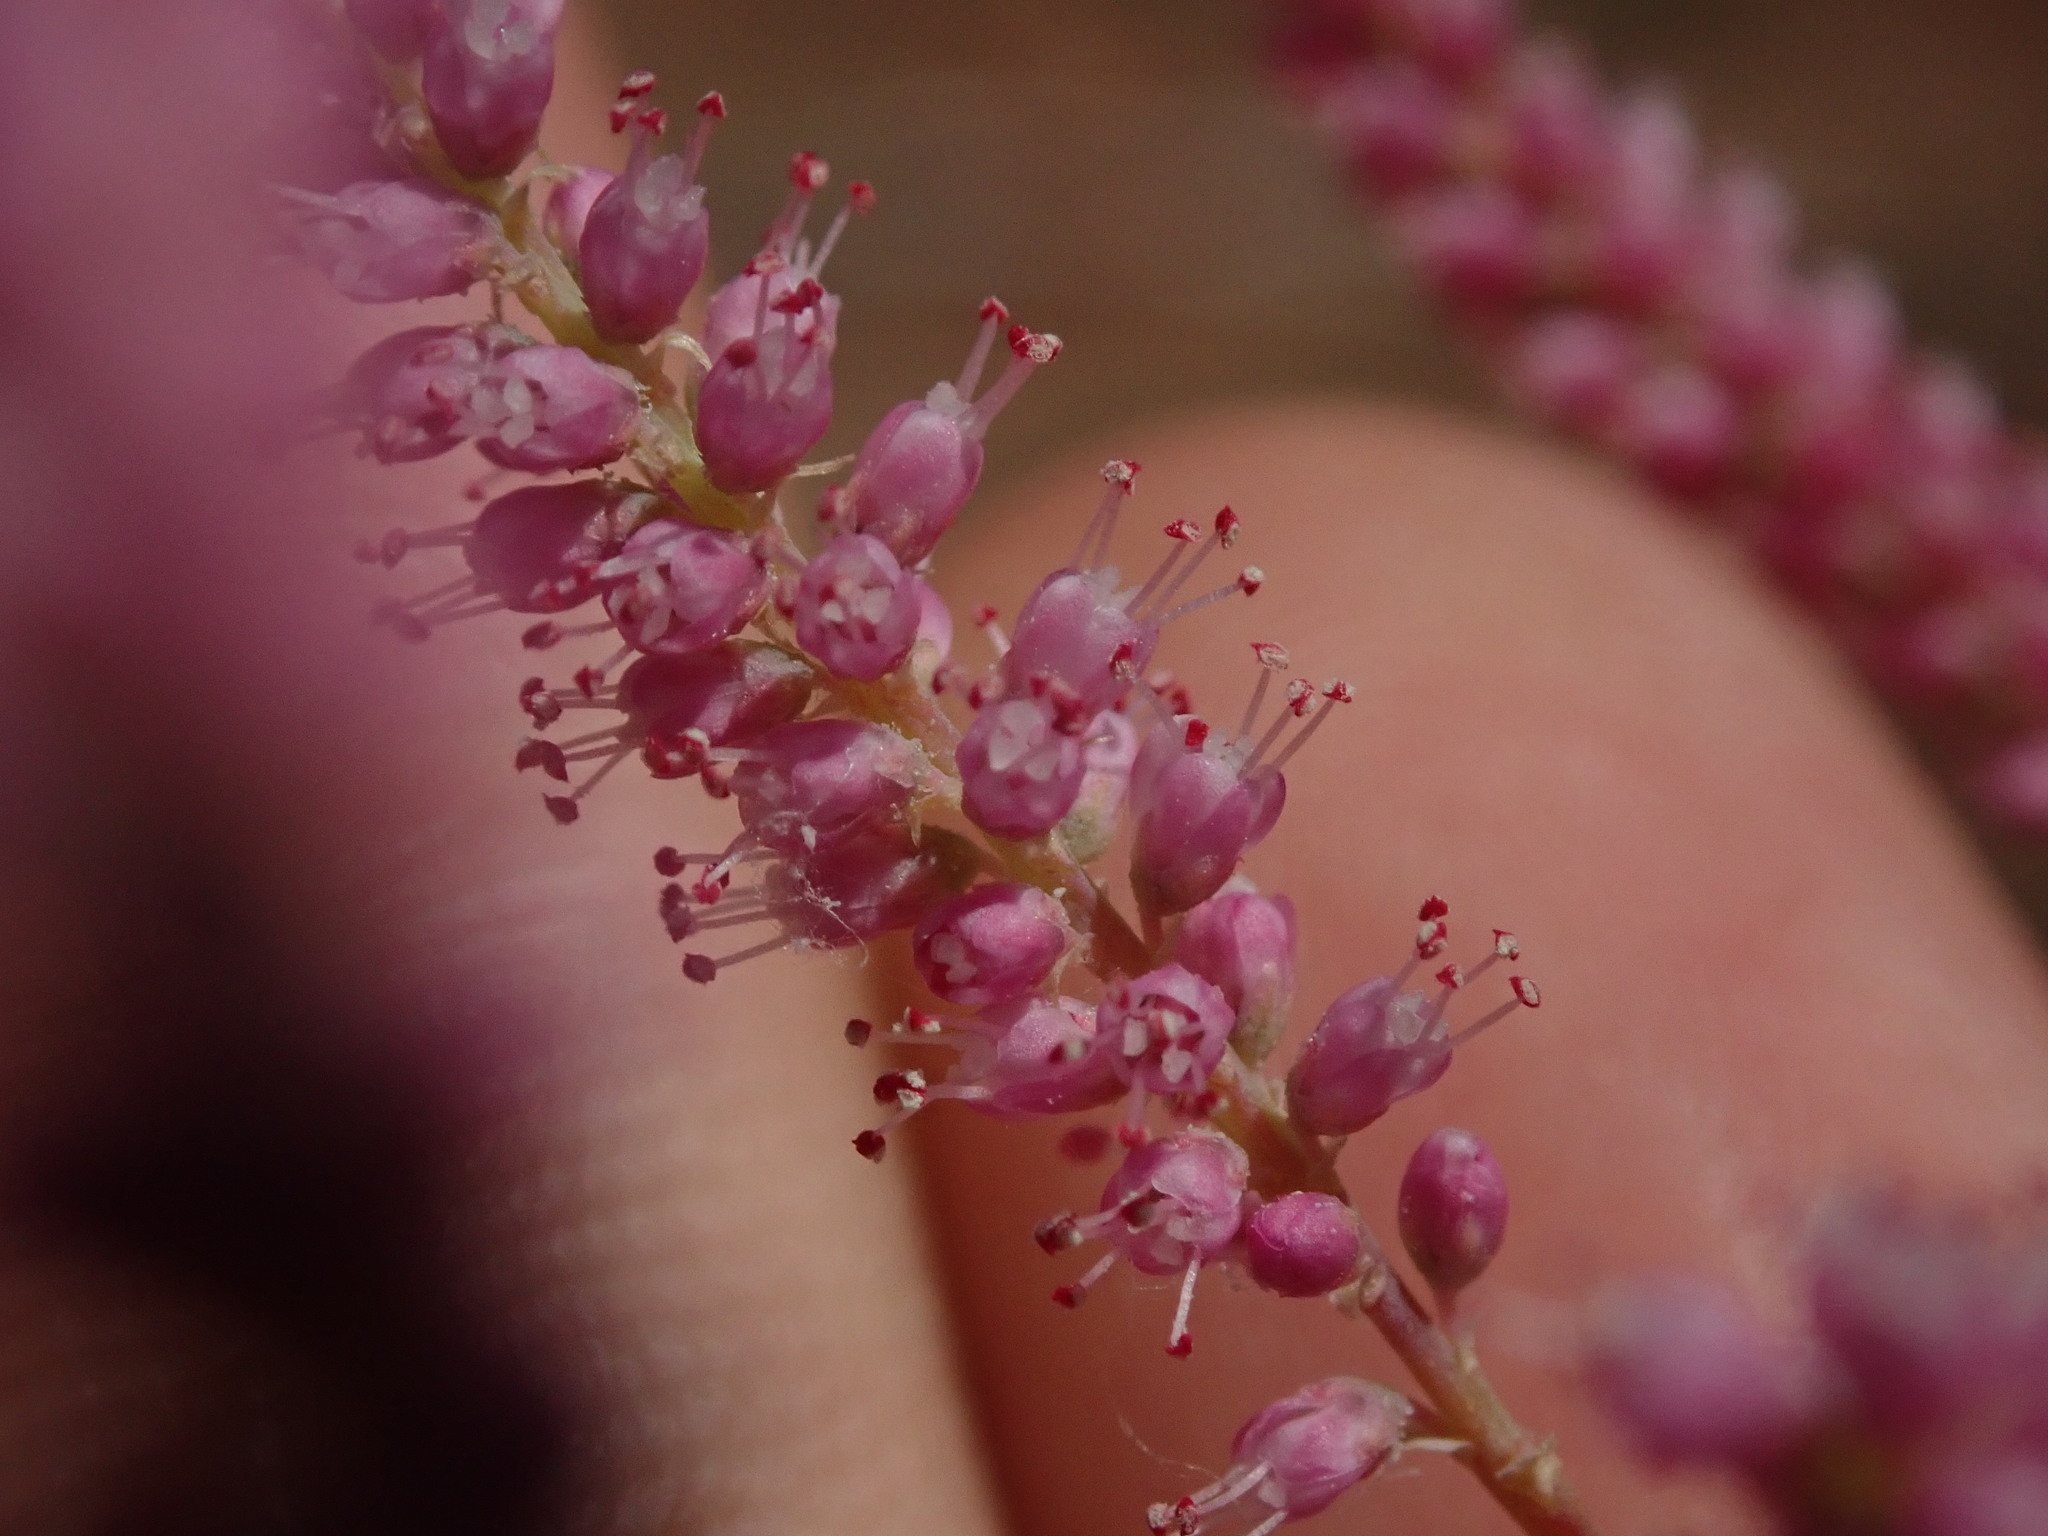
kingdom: Plantae
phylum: Tracheophyta
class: Magnoliopsida
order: Caryophyllales
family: Tamaricaceae
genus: Tamarix
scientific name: Tamarix ramosissima
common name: Pink tamarisk
